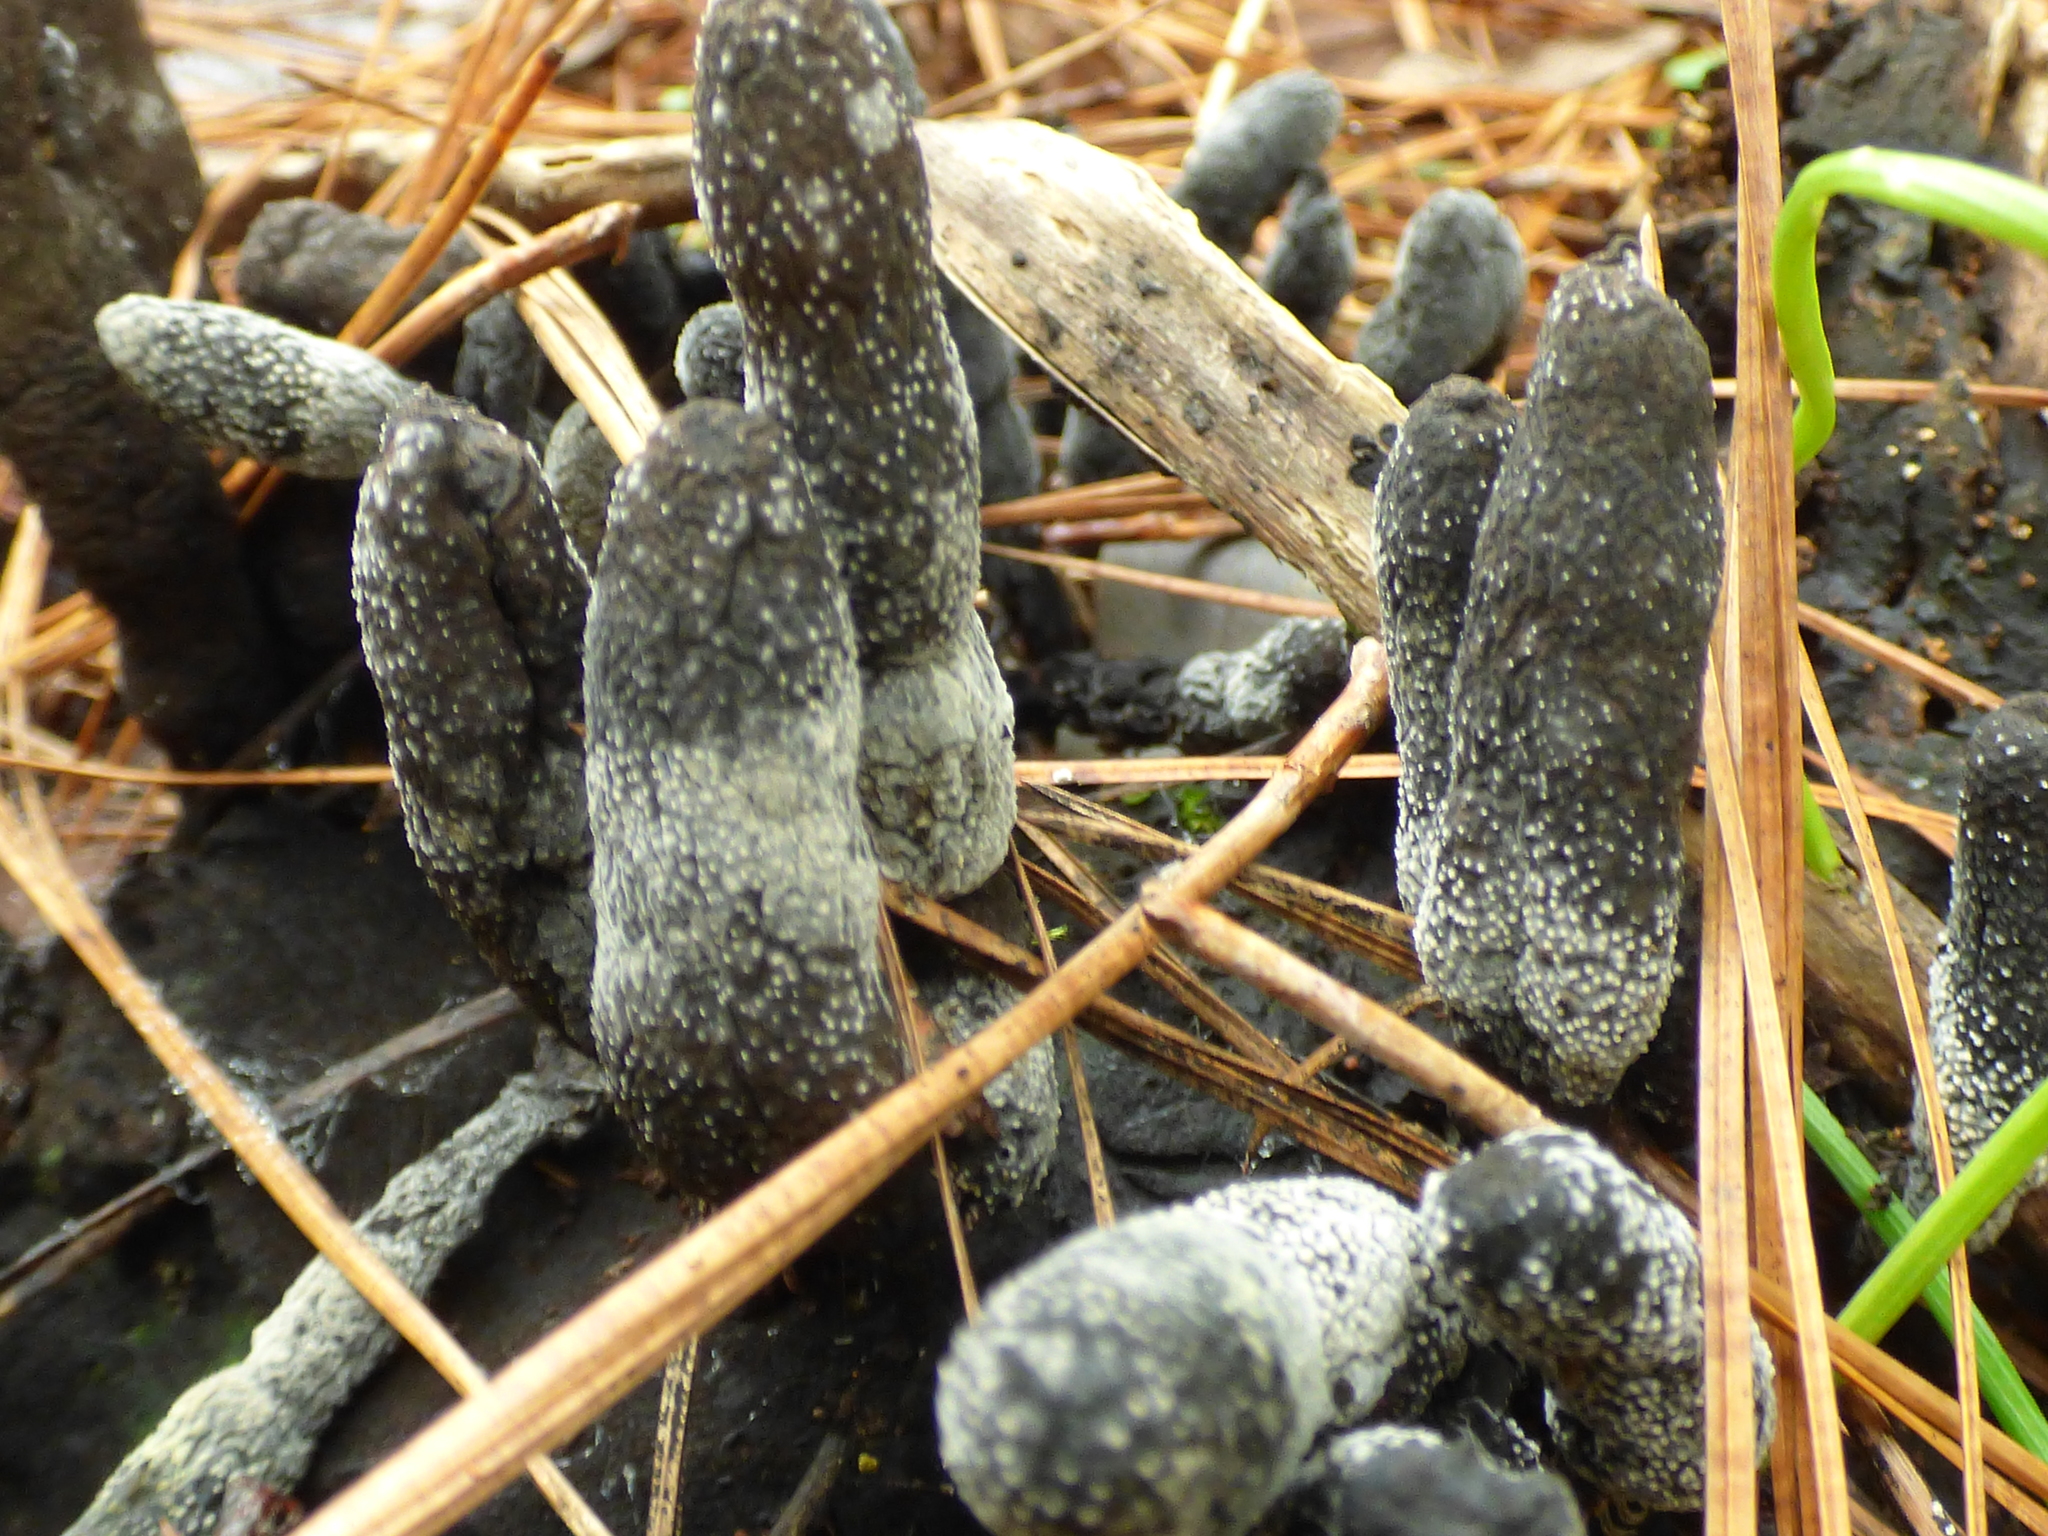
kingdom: Fungi
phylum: Ascomycota
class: Sordariomycetes
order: Xylariales
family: Xylariaceae
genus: Xylaria
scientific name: Xylaria polymorpha
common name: Dead man's fingers
